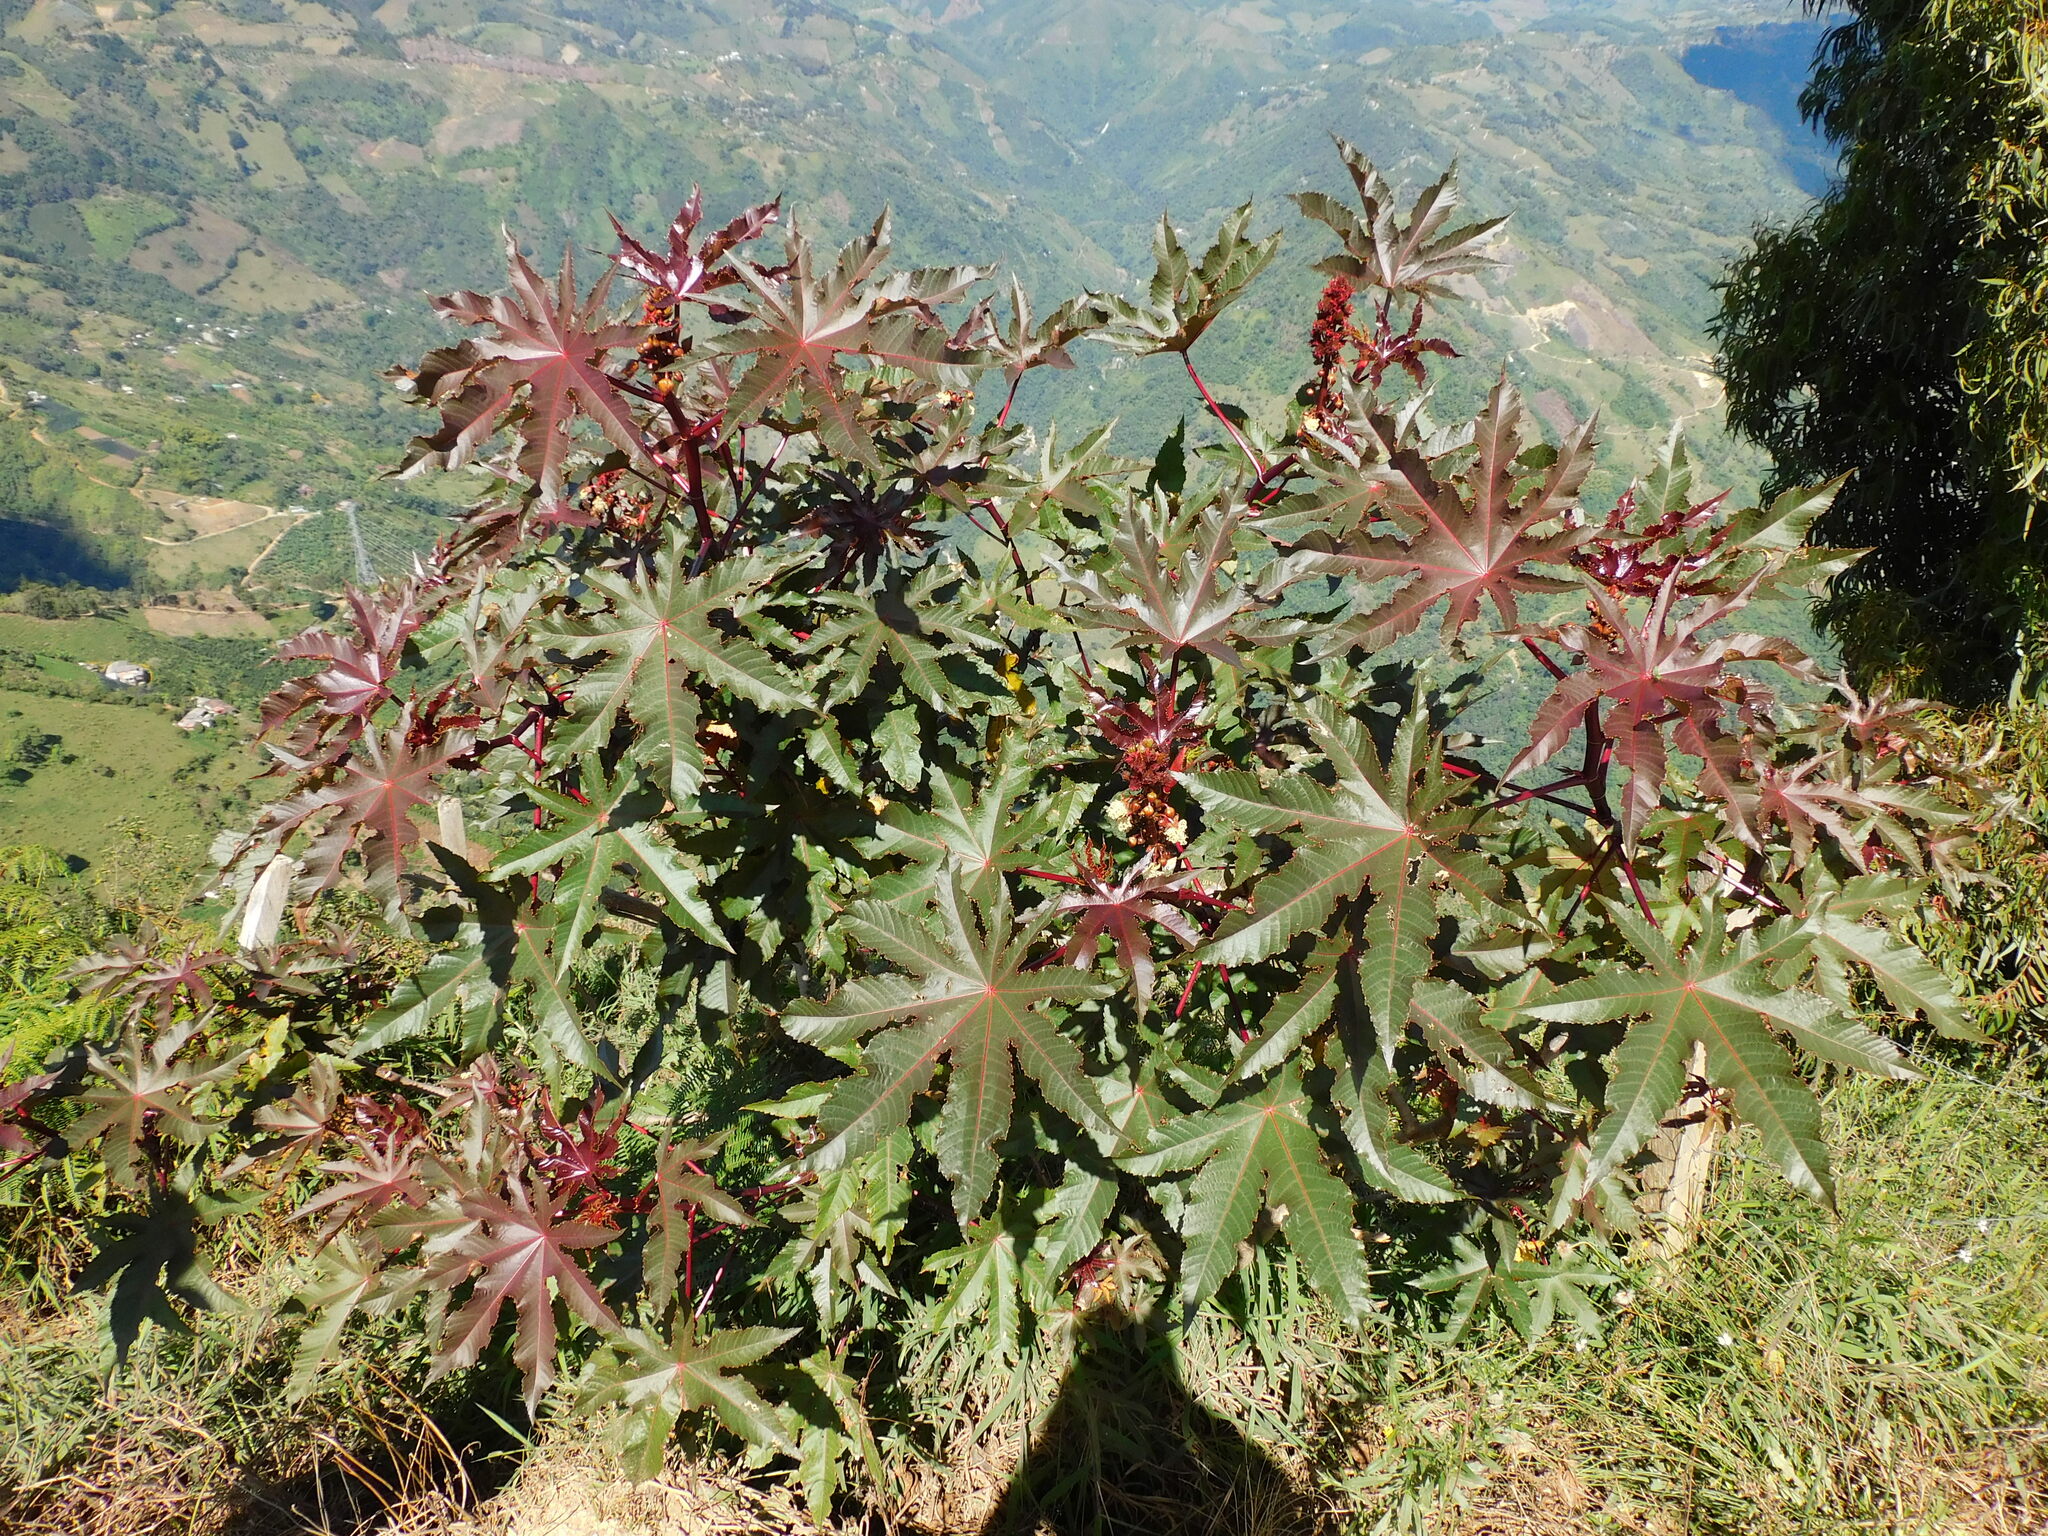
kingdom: Plantae
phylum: Tracheophyta
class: Magnoliopsida
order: Malpighiales
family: Euphorbiaceae
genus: Ricinus
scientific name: Ricinus communis
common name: Castor-oil-plant
